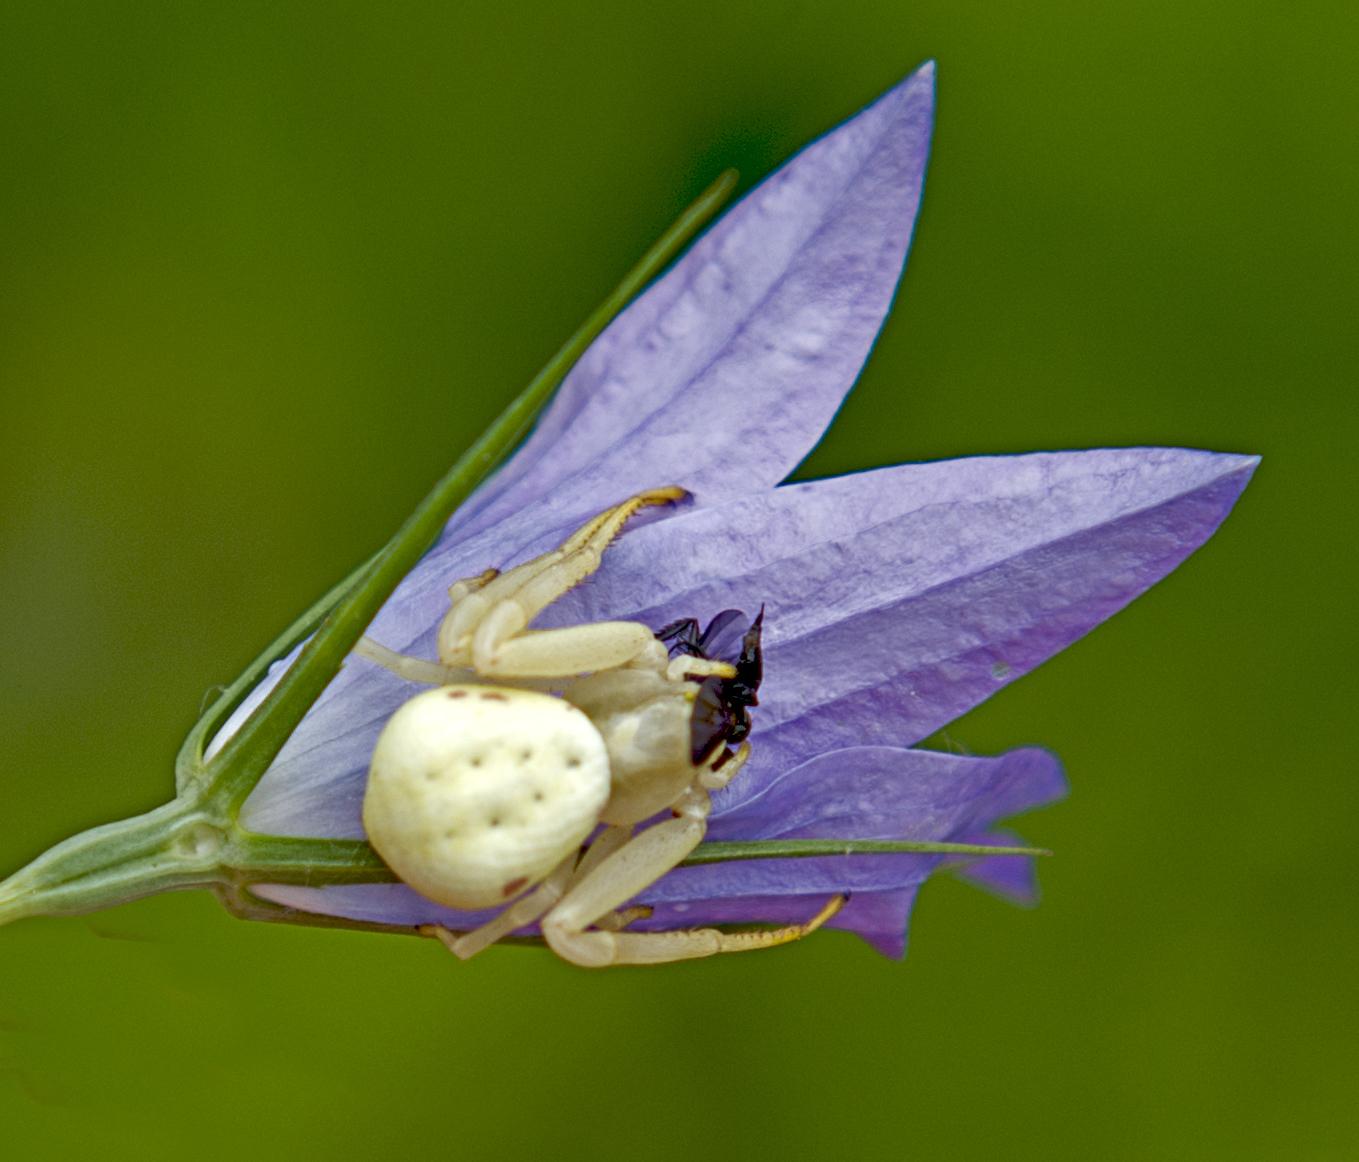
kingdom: Animalia
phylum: Arthropoda
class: Arachnida
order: Araneae
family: Thomisidae
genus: Misumena
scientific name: Misumena vatia
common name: Goldenrod crab spider
